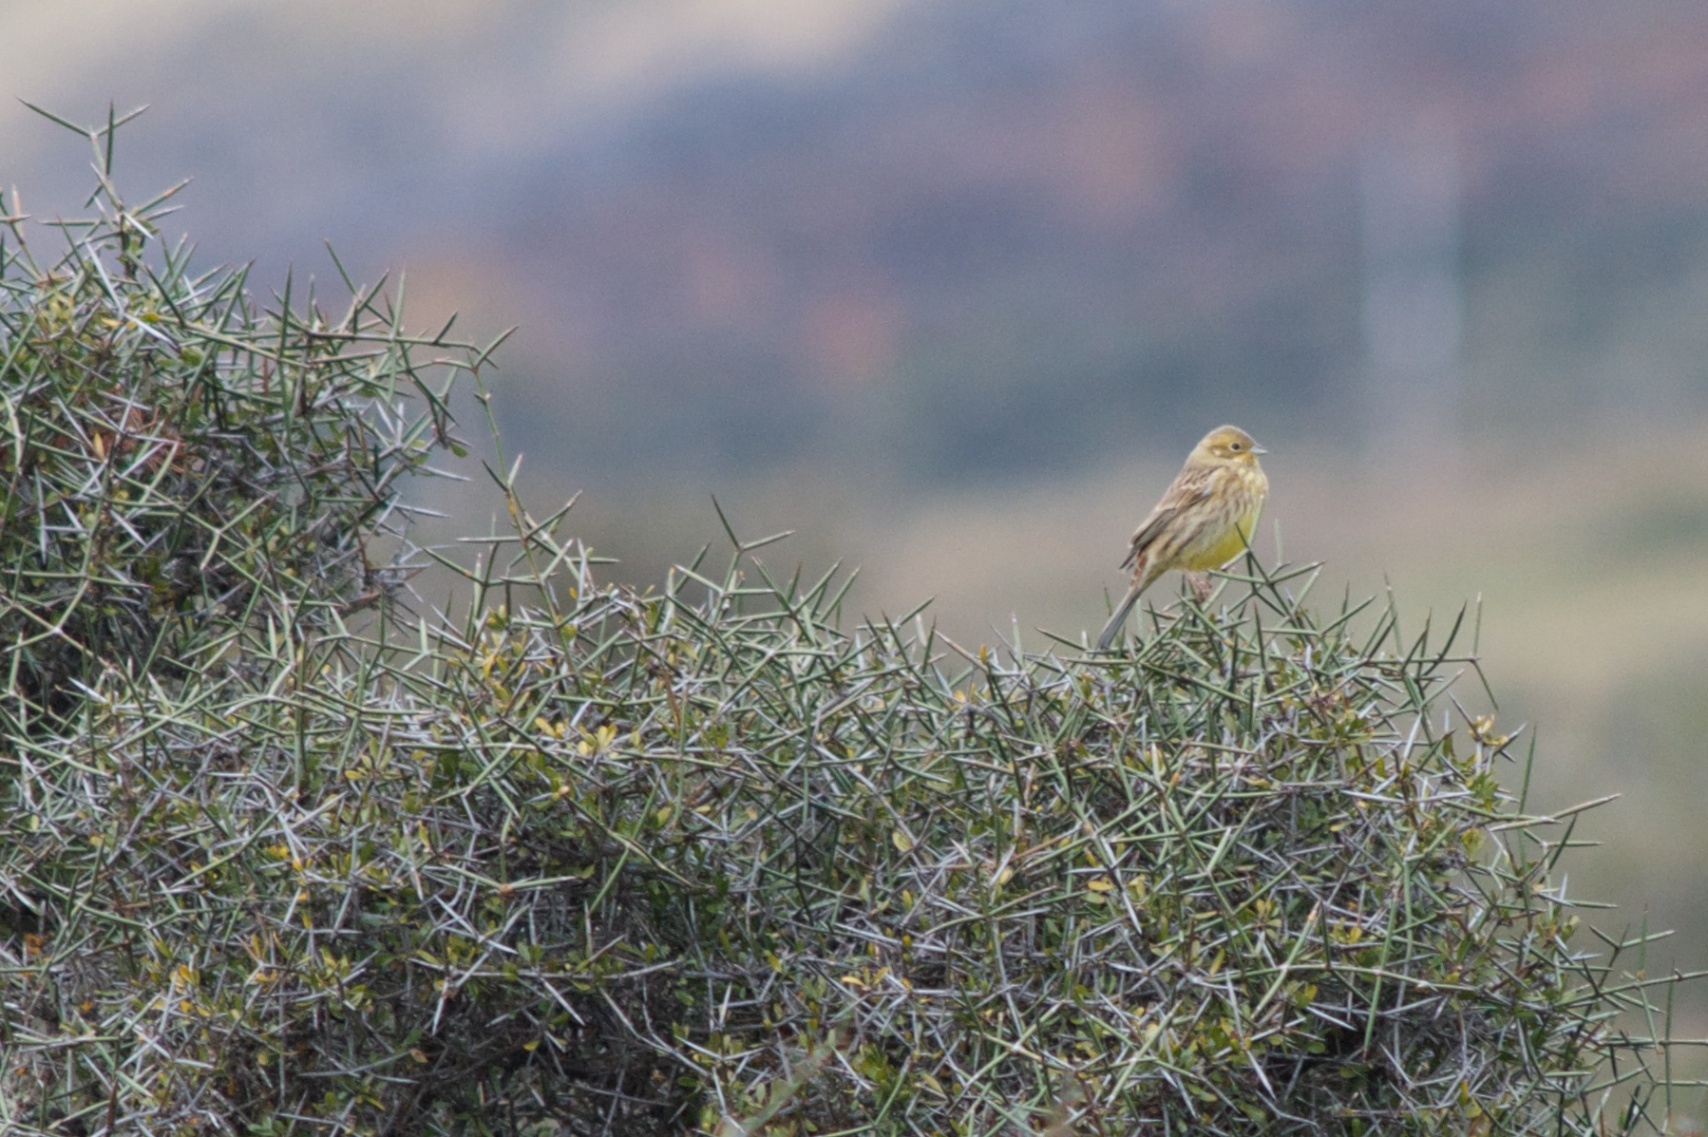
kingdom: Animalia
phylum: Chordata
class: Aves
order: Passeriformes
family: Emberizidae
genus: Emberiza
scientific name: Emberiza citrinella
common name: Yellowhammer
